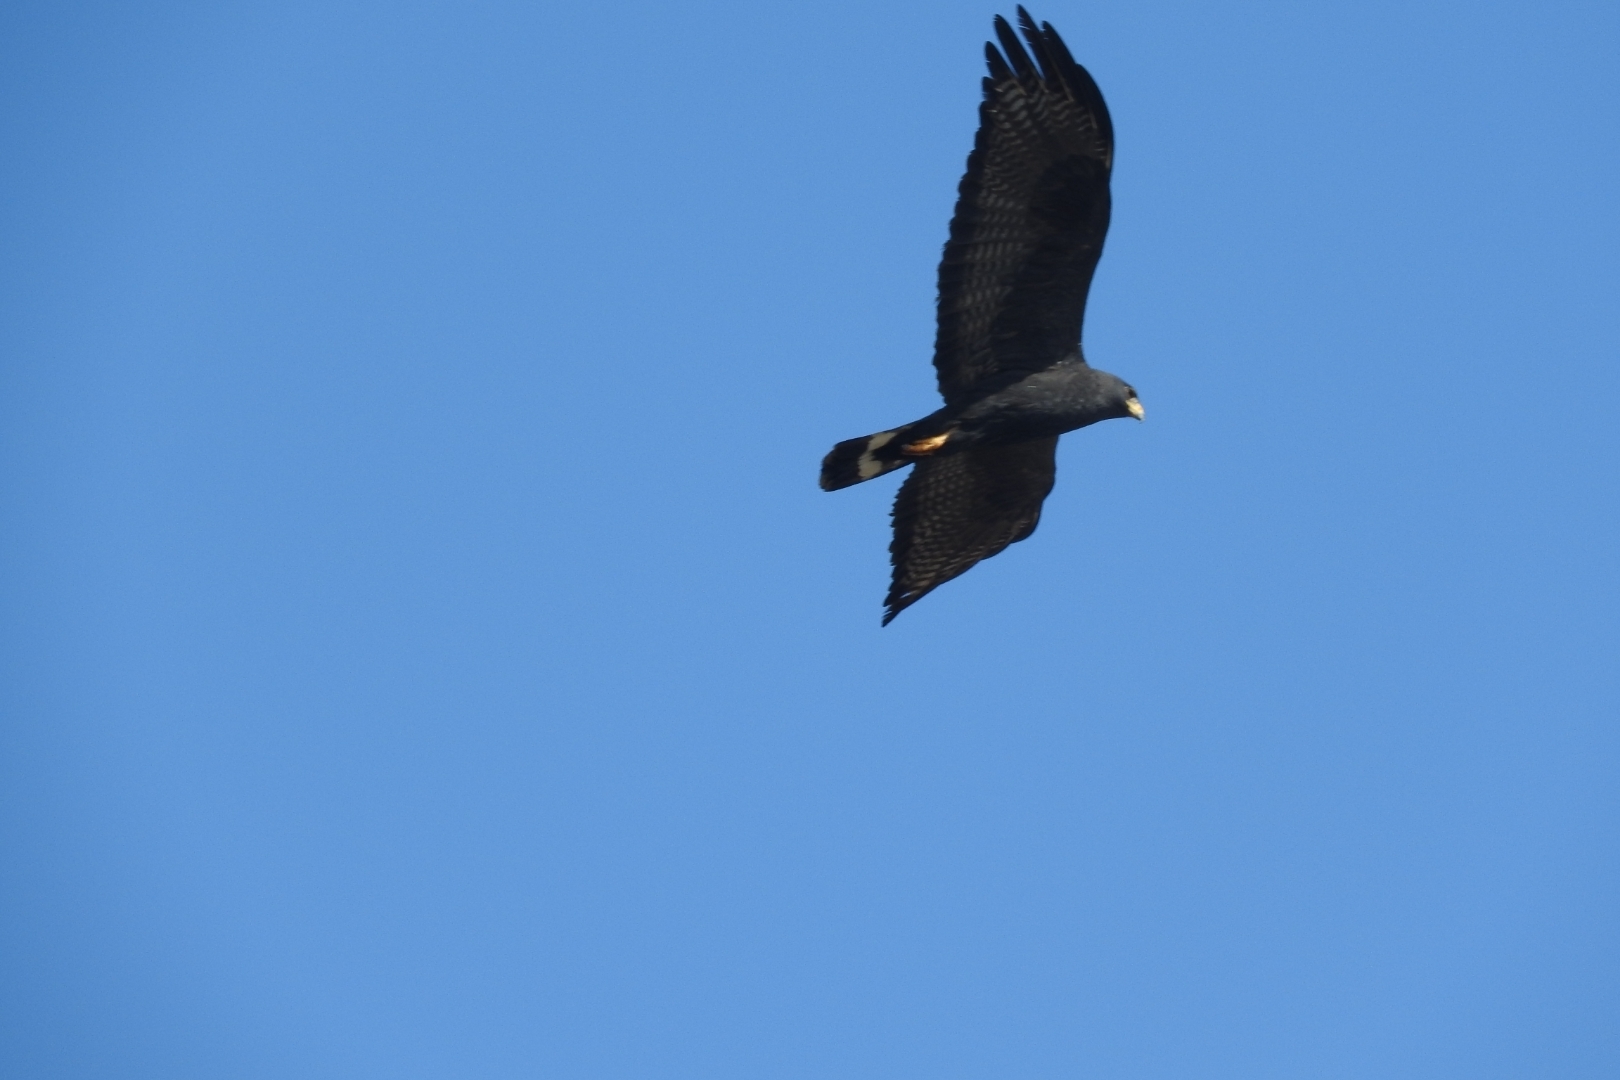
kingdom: Animalia
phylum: Chordata
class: Aves
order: Accipitriformes
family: Accipitridae
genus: Buteo
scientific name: Buteo albonotatus
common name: Zone-tailed hawk
